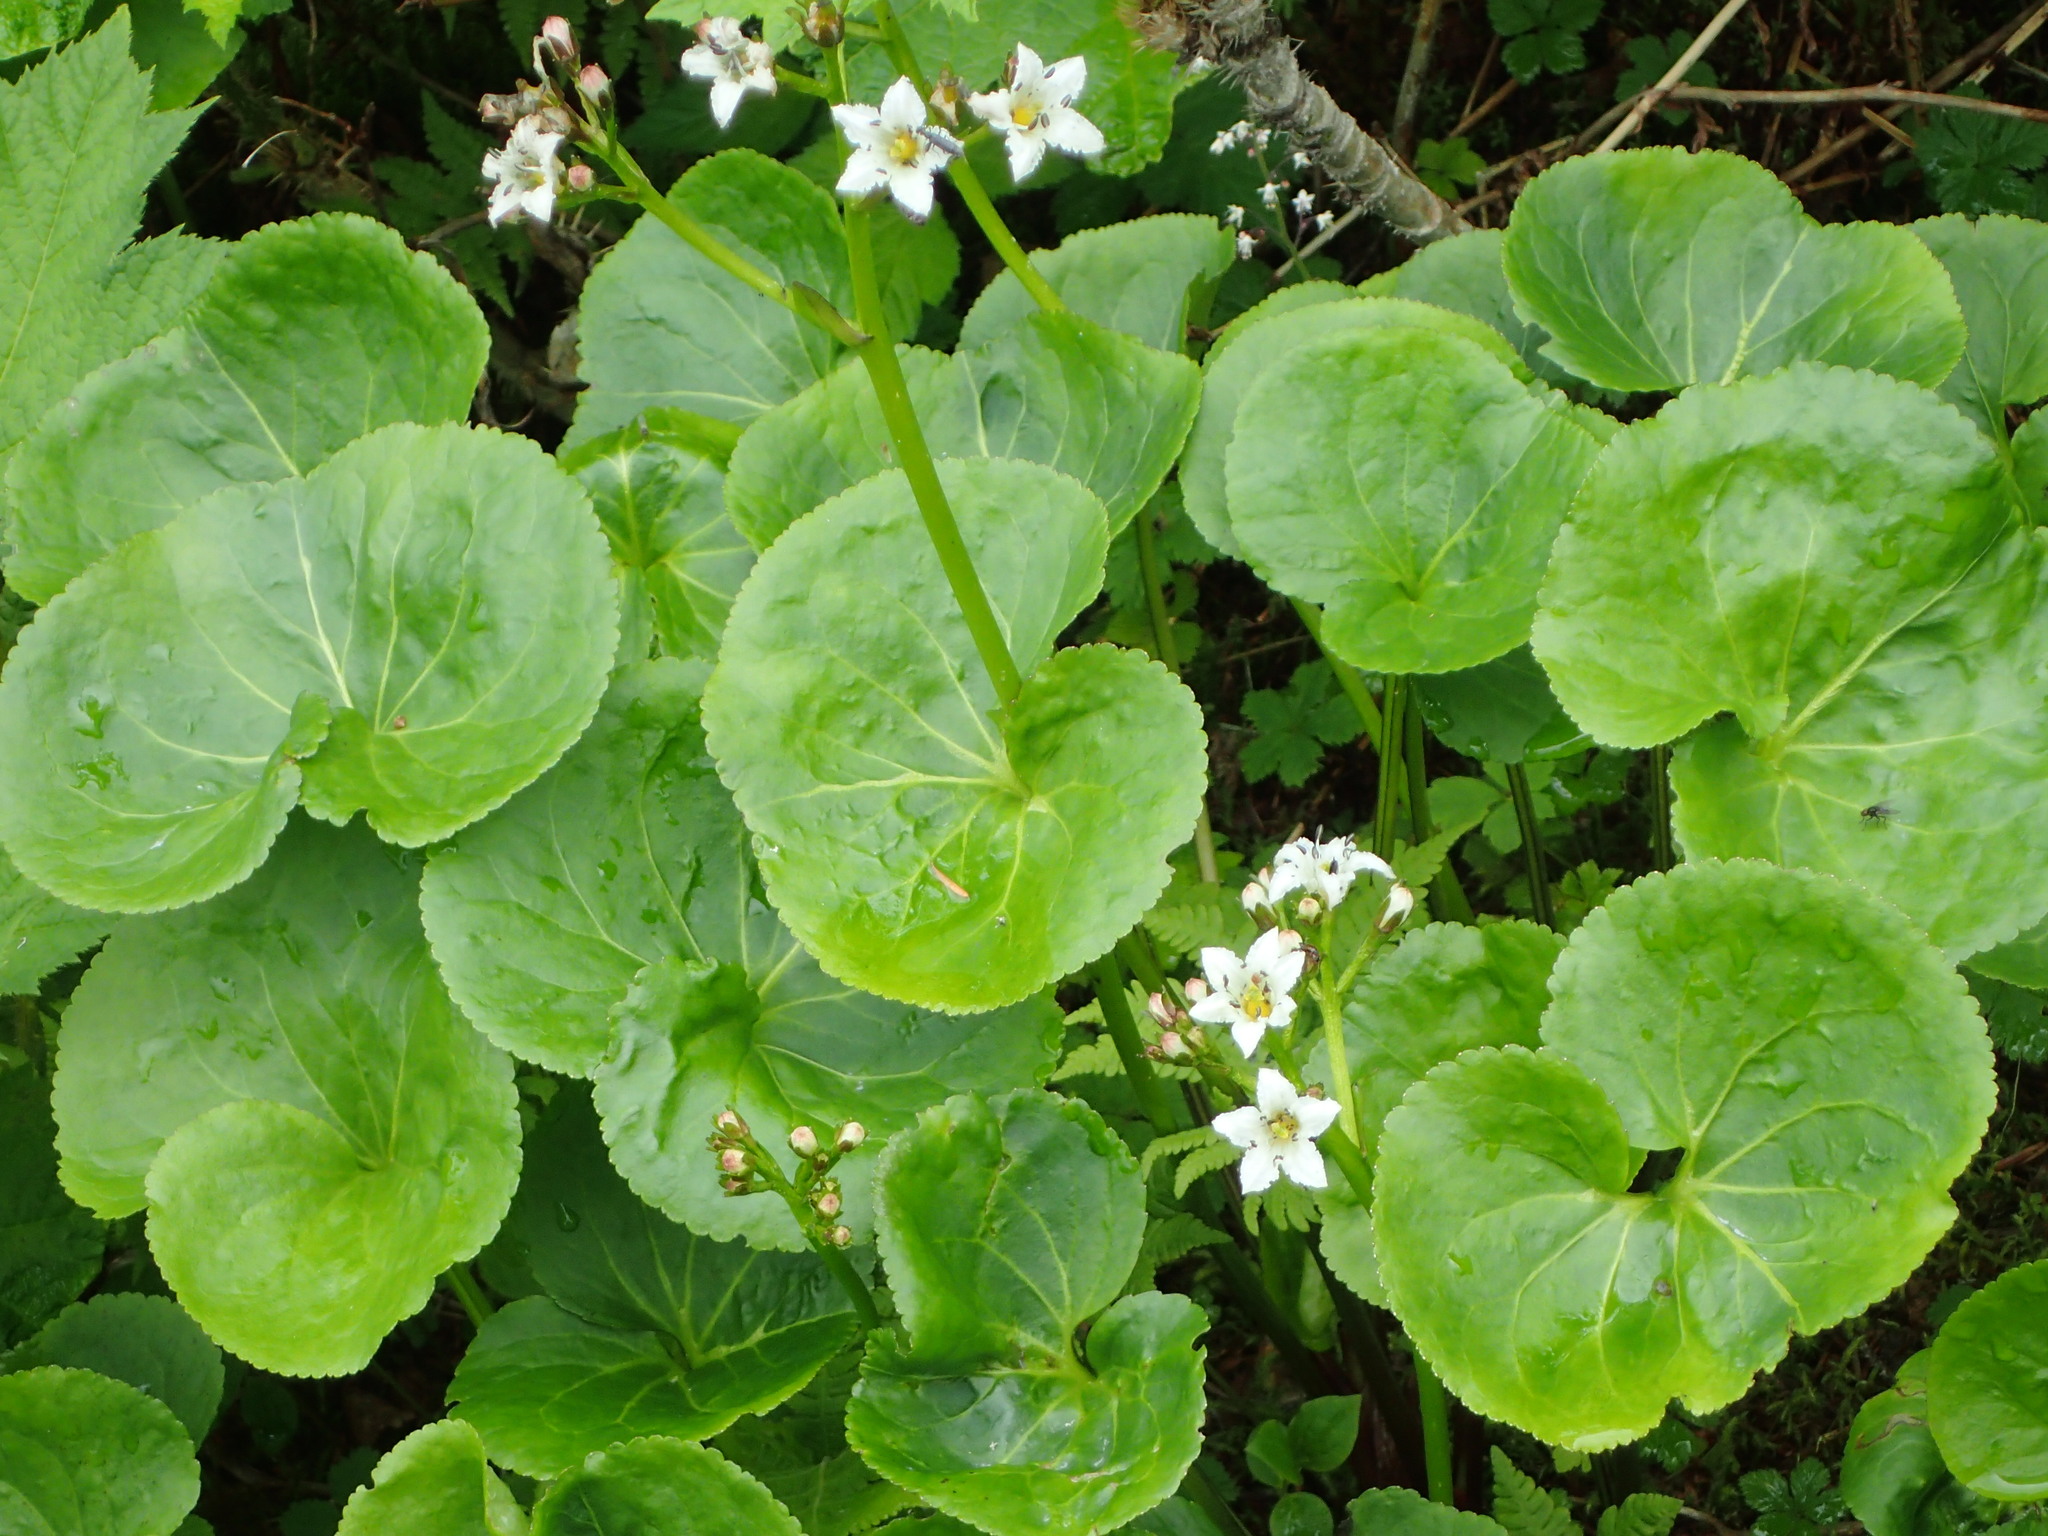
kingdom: Plantae
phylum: Tracheophyta
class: Magnoliopsida
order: Asterales
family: Menyanthaceae
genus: Nephrophyllidium
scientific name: Nephrophyllidium crista-galli
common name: Deer-cabbage
